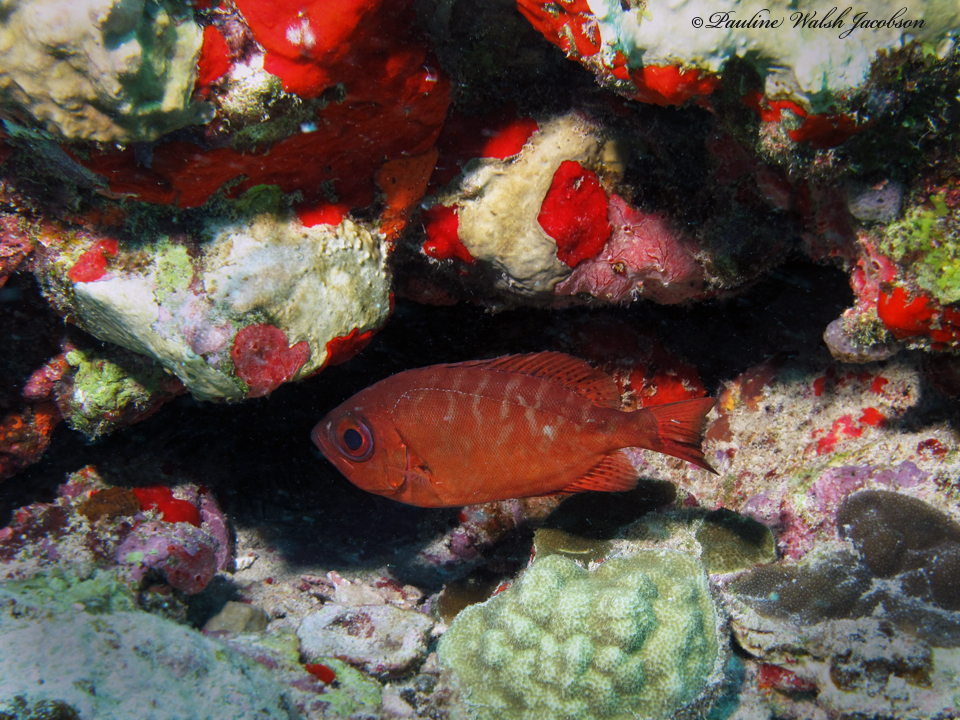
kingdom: Animalia
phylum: Chordata
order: Perciformes
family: Priacanthidae
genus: Heteropriacanthus
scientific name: Heteropriacanthus cruentatus
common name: Glasseye
